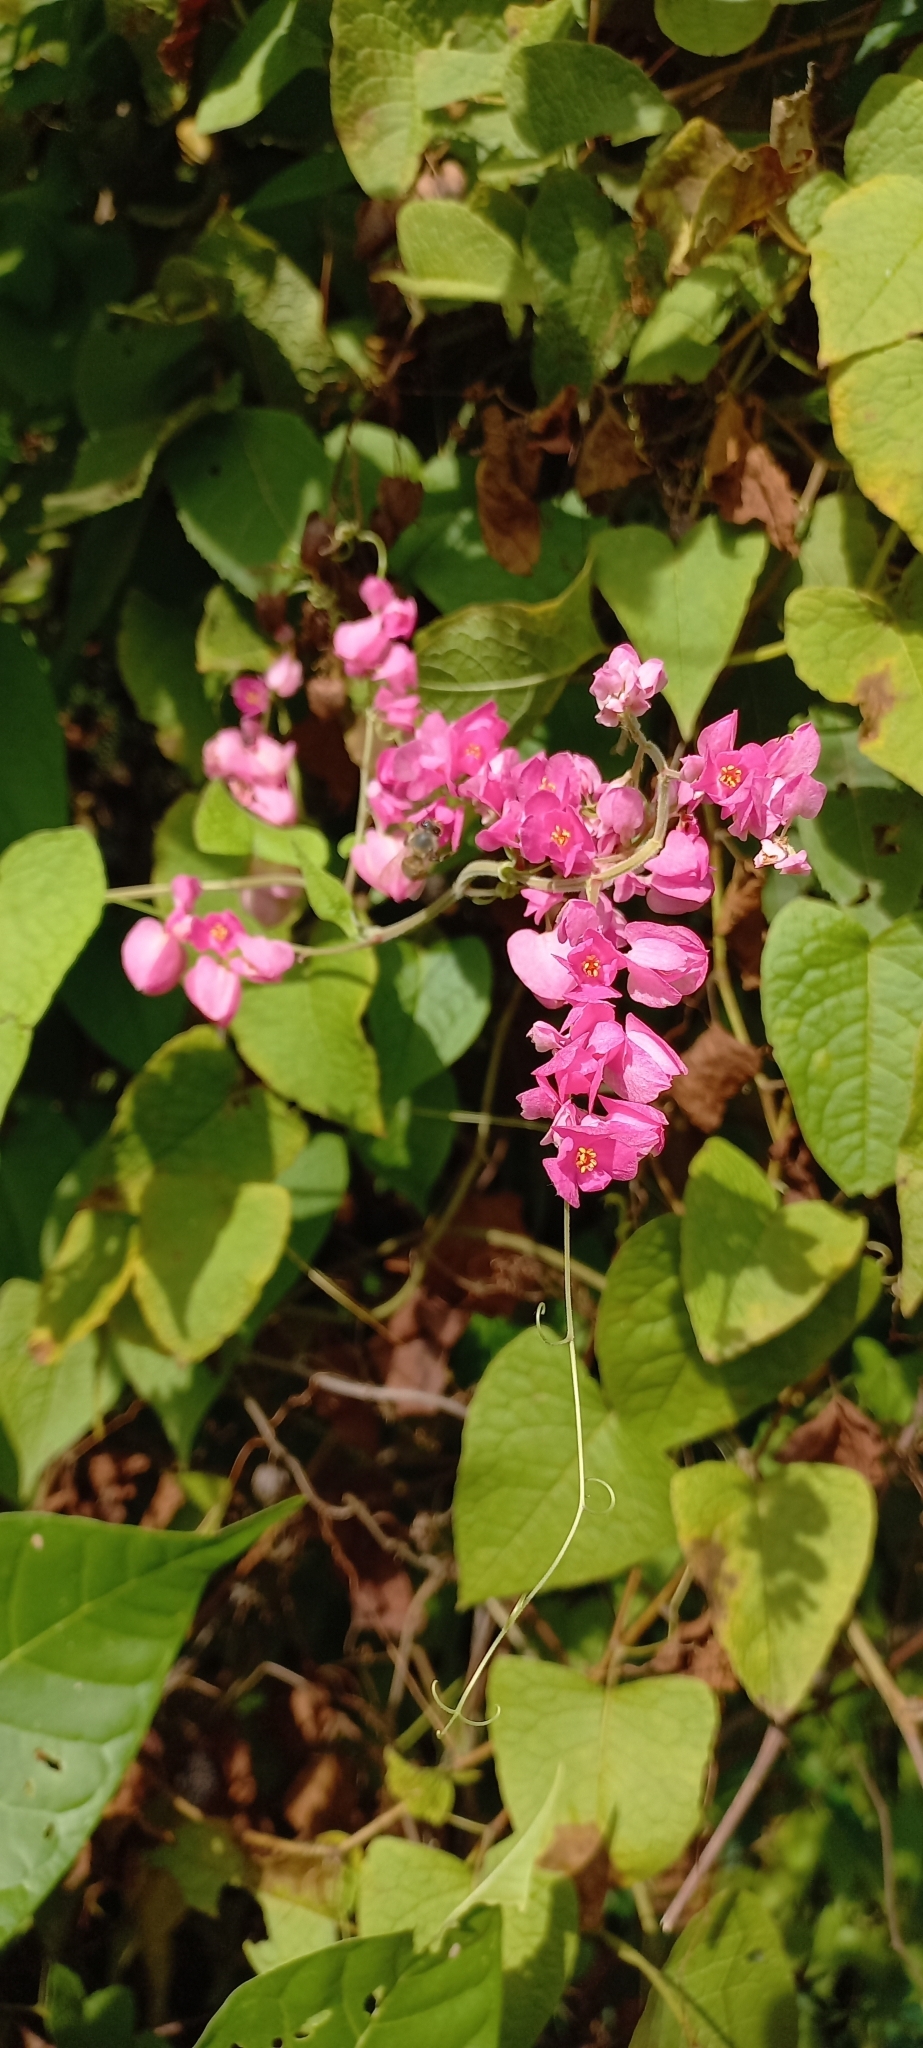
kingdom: Plantae
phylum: Tracheophyta
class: Magnoliopsida
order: Caryophyllales
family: Polygonaceae
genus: Antigonon
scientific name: Antigonon leptopus
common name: Coral vine
